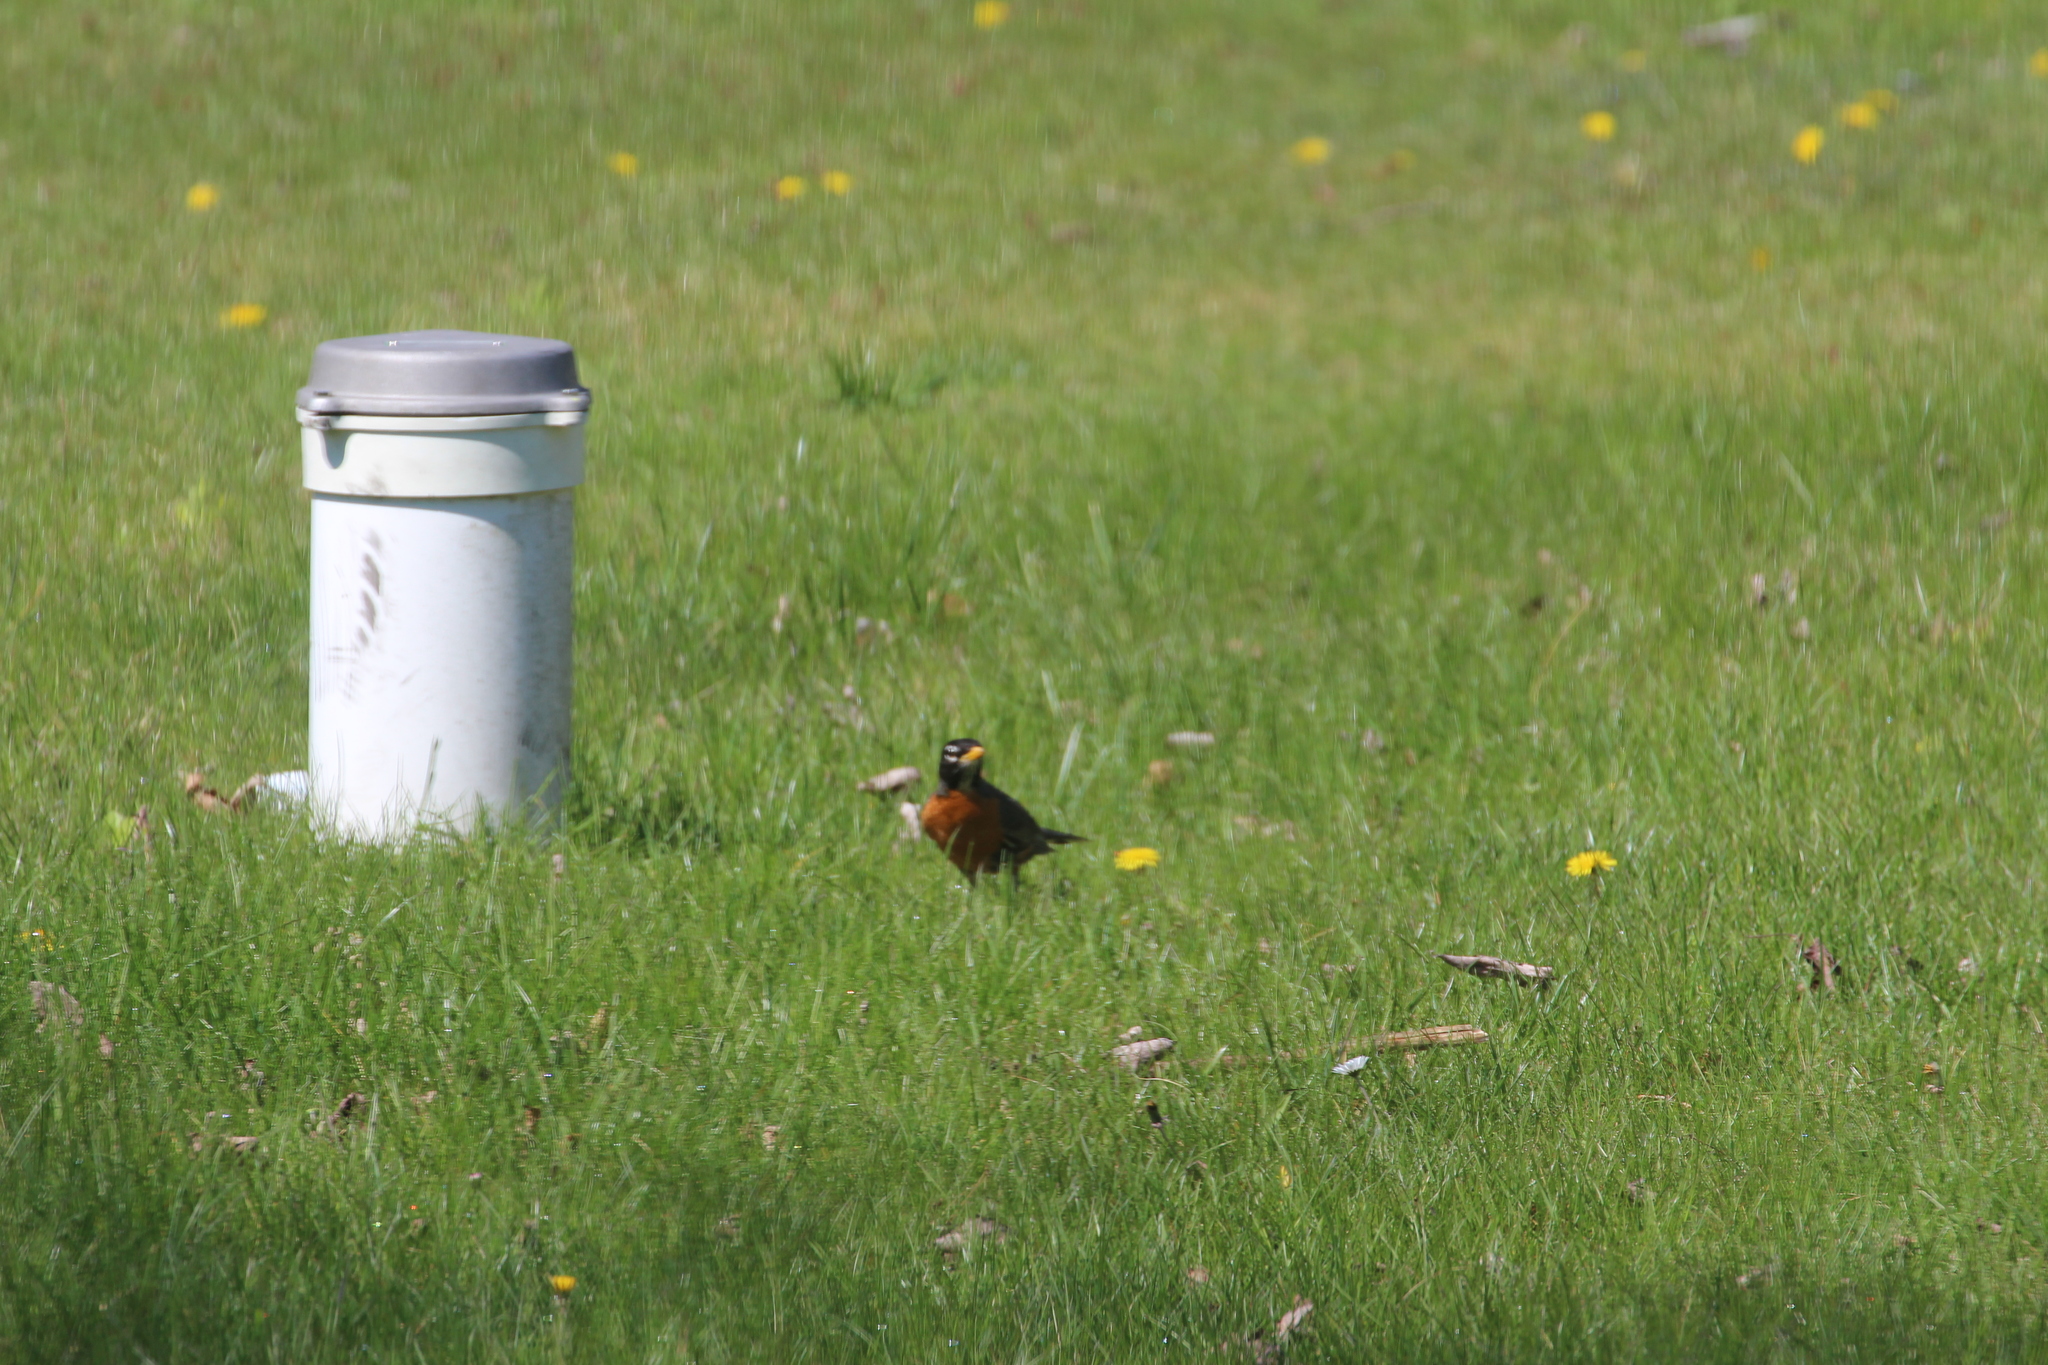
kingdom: Animalia
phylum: Chordata
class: Aves
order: Passeriformes
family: Turdidae
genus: Turdus
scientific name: Turdus migratorius
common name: American robin
